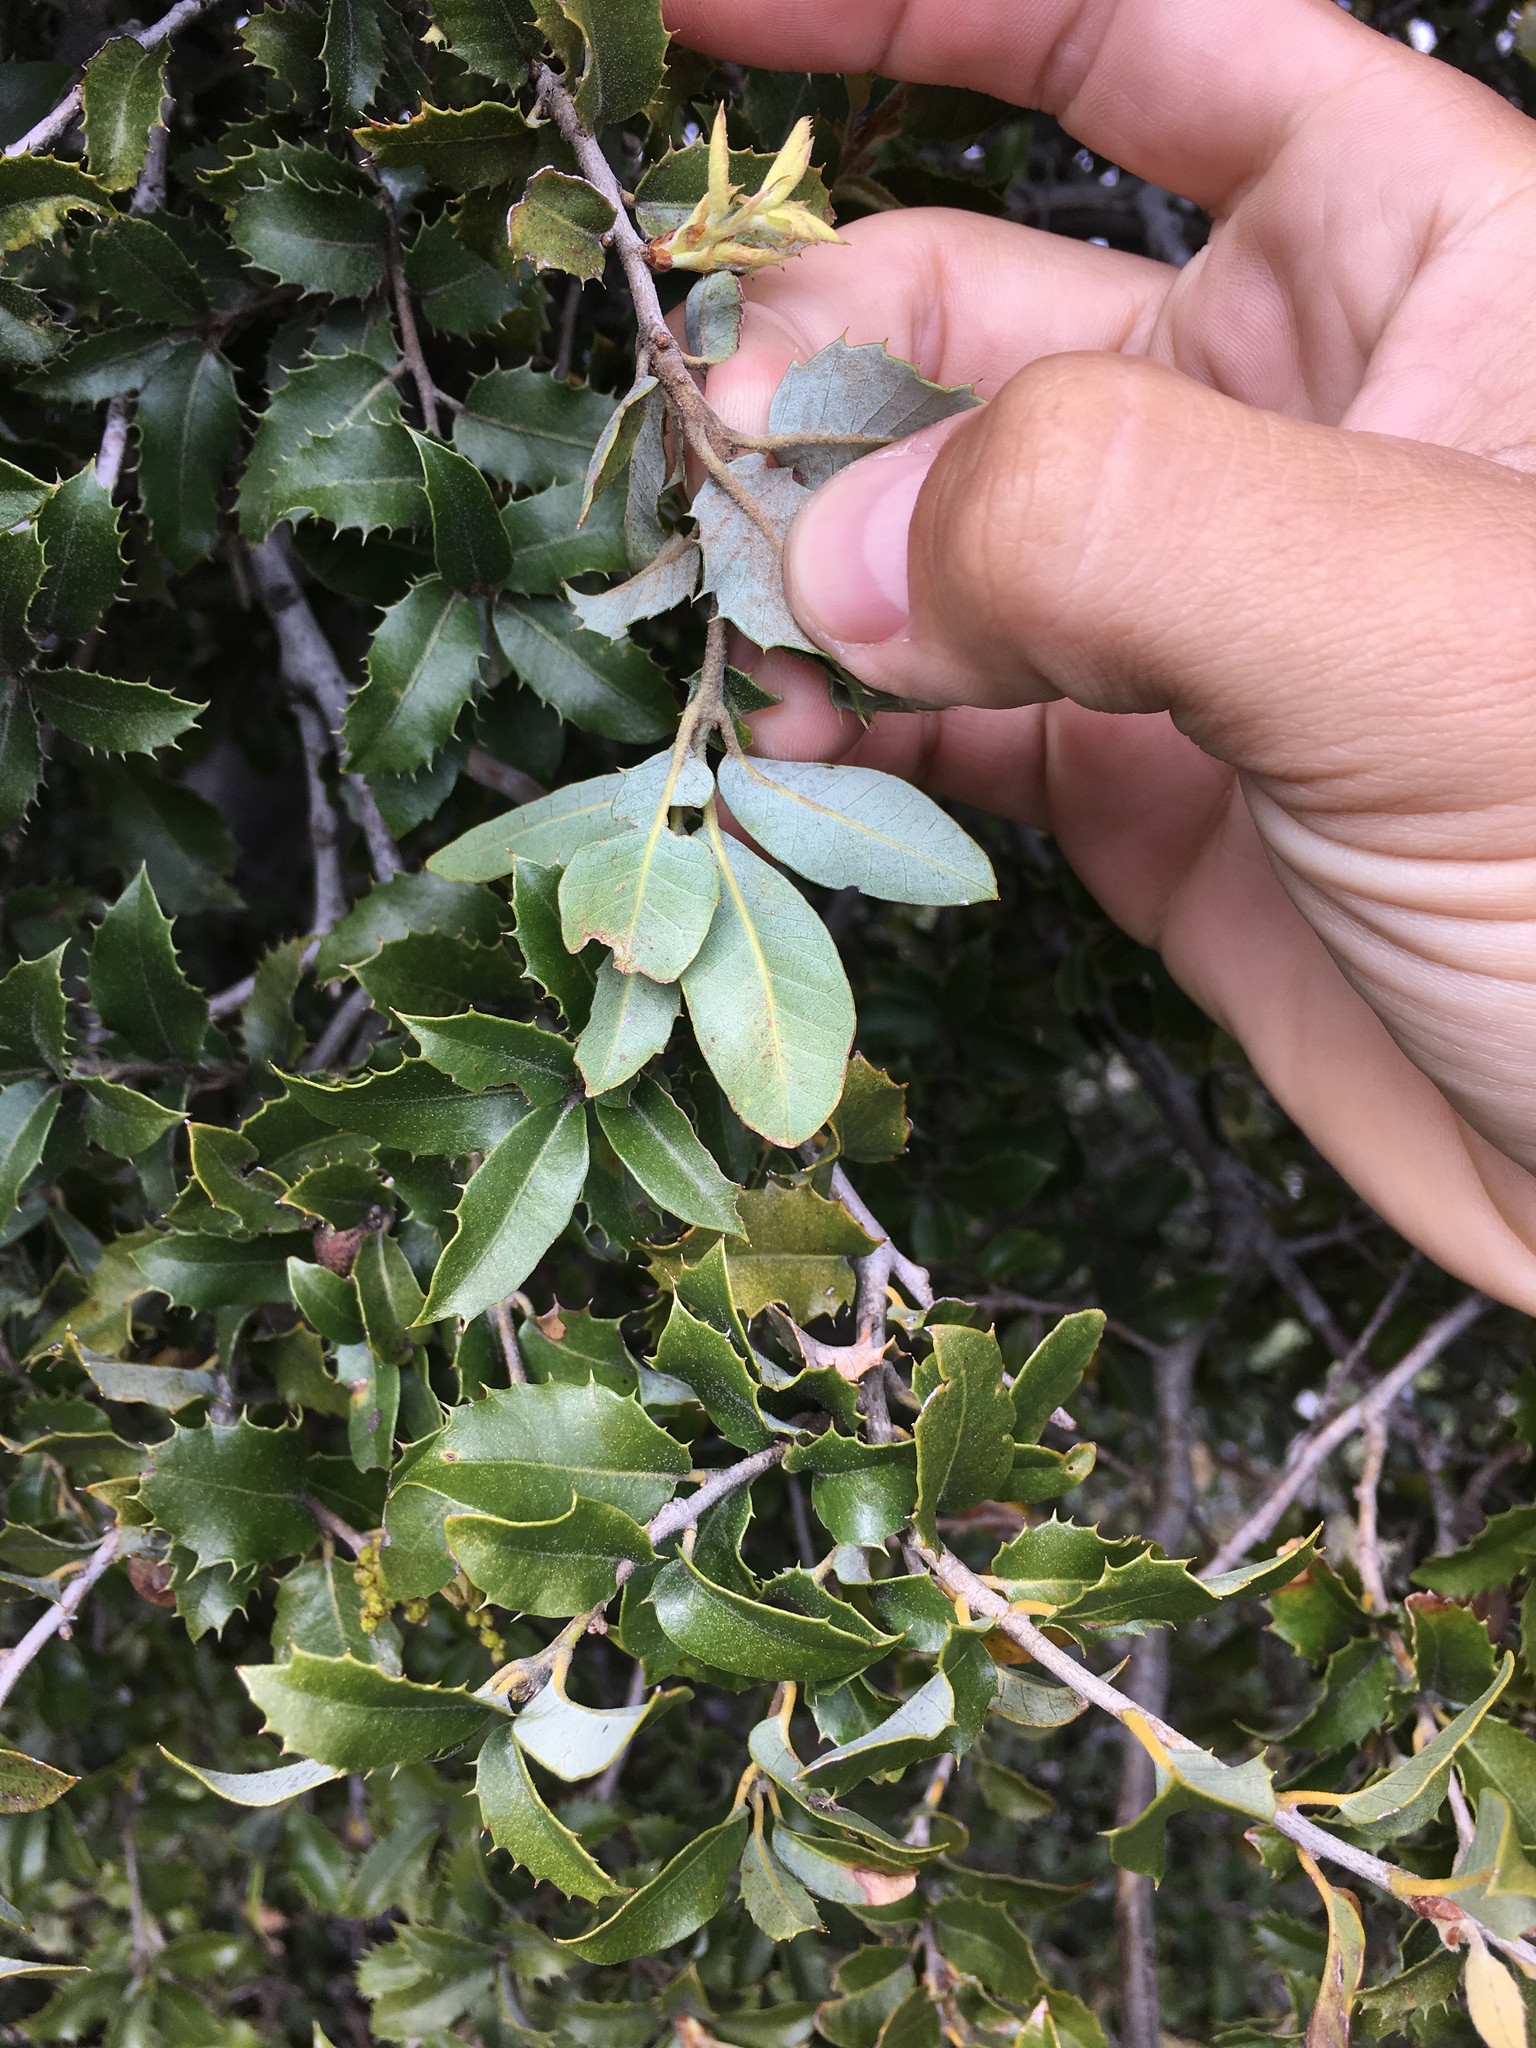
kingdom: Plantae
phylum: Tracheophyta
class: Magnoliopsida
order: Fagales
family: Fagaceae
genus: Quercus
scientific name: Quercus chrysolepis
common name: Canyon live oak
